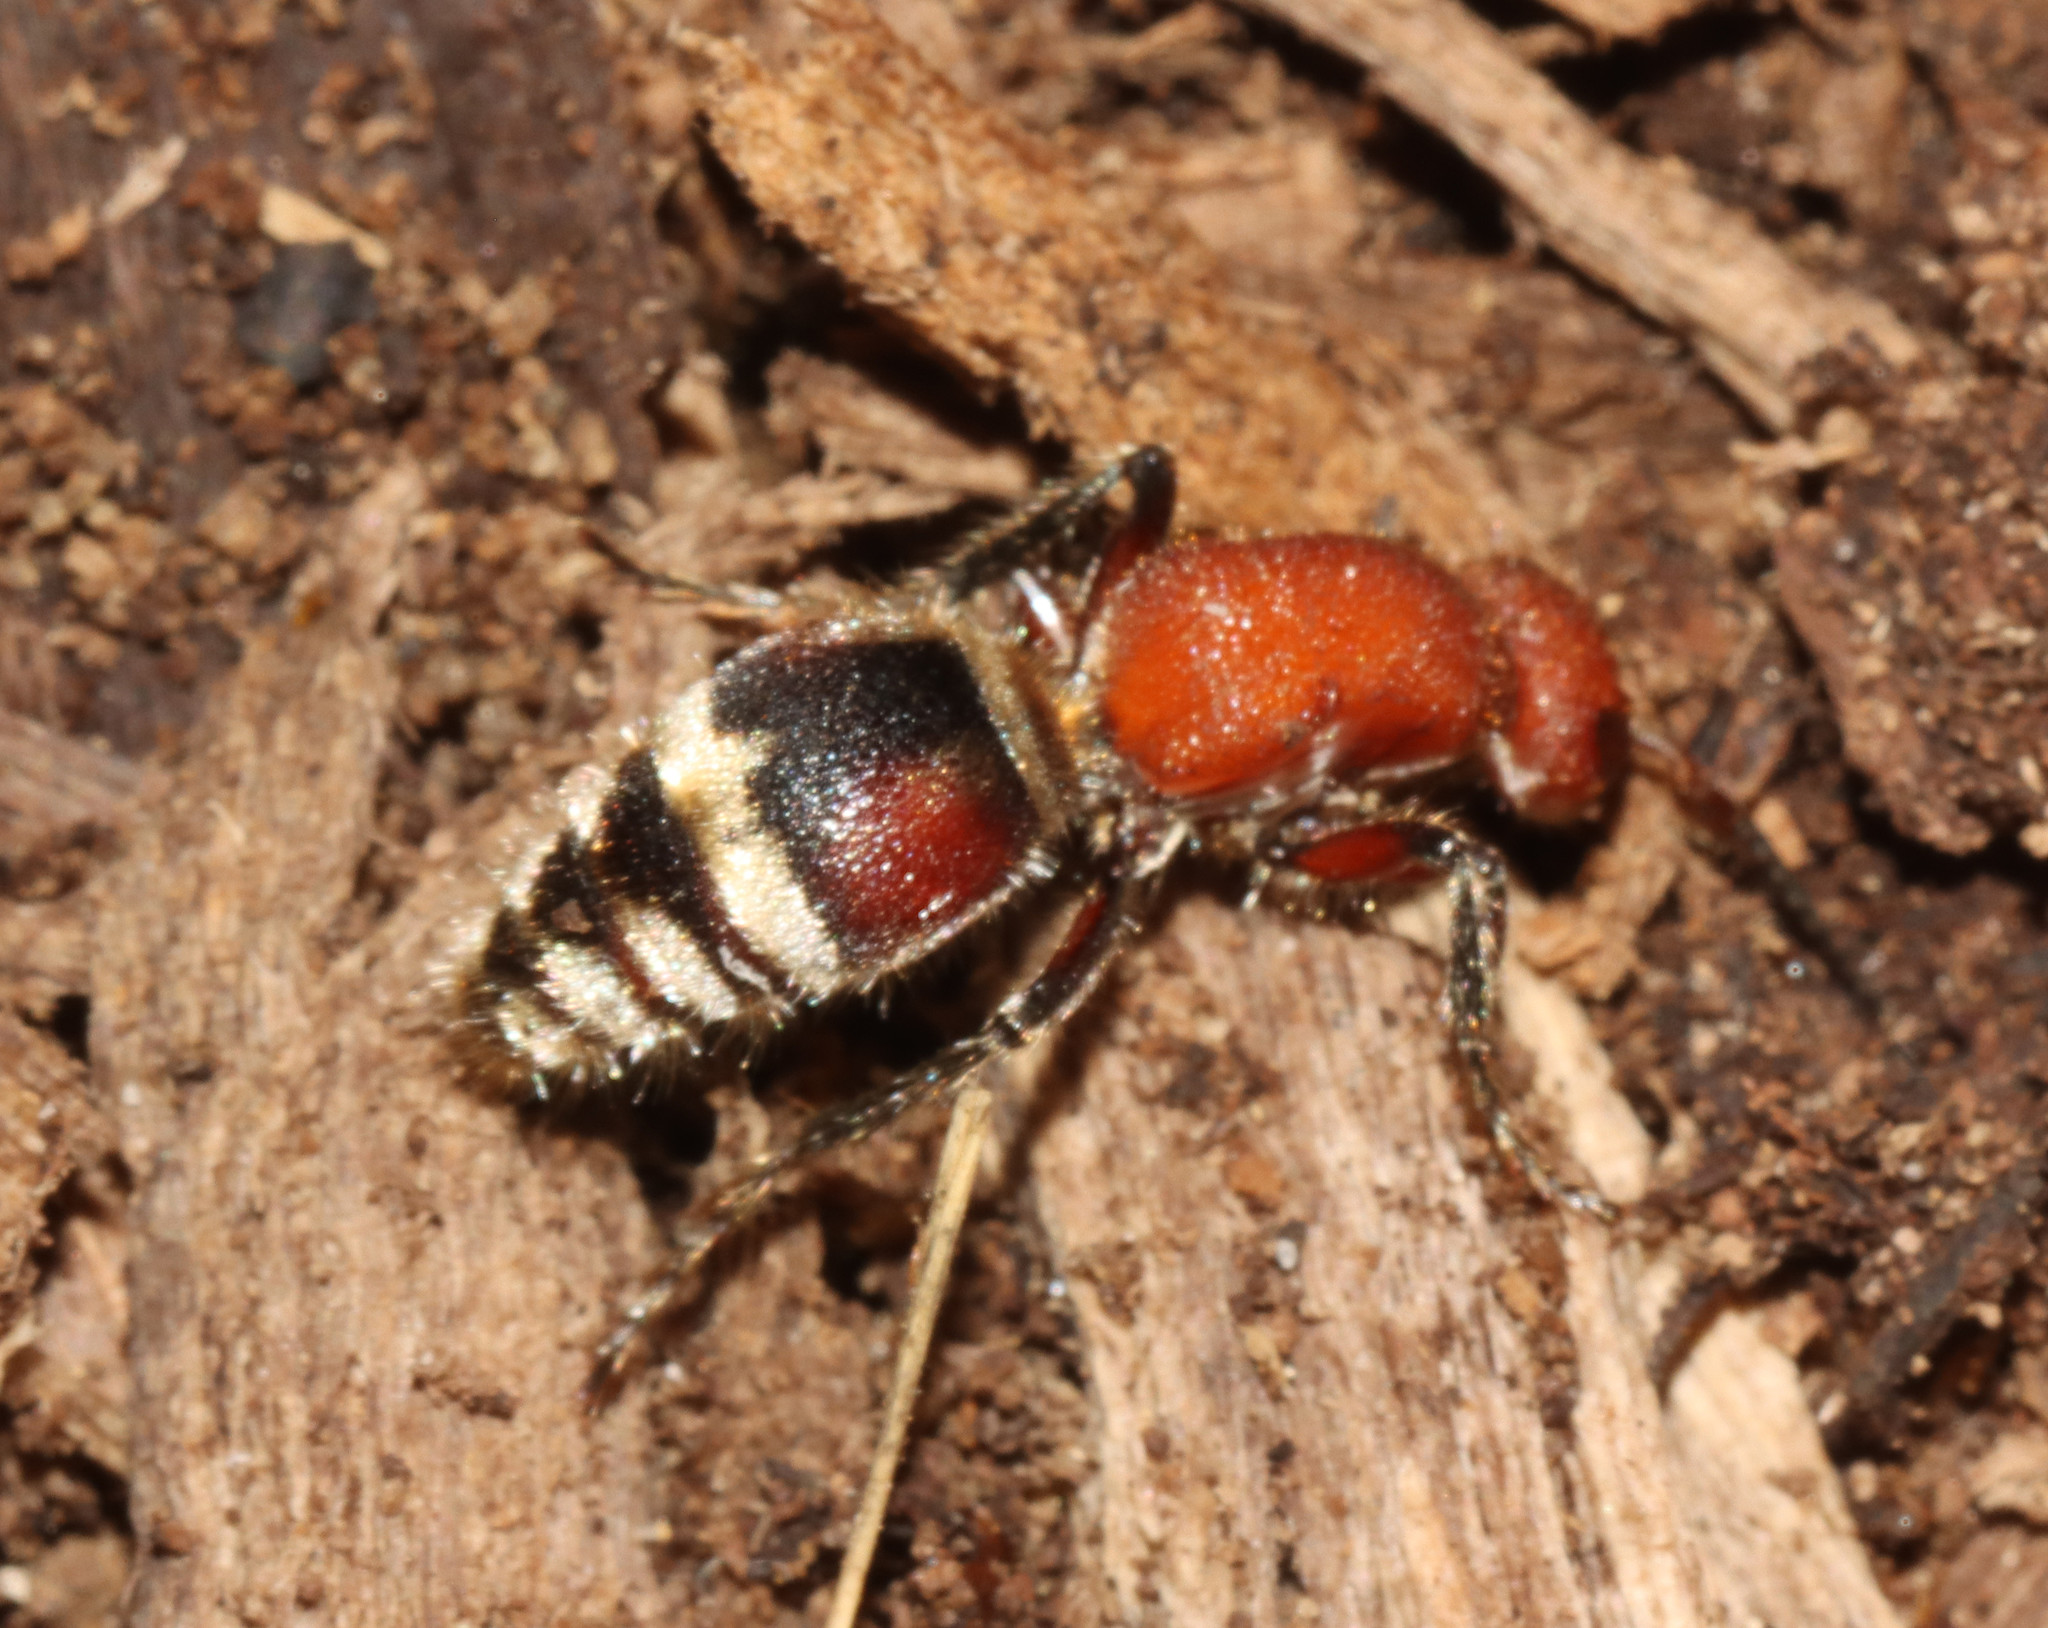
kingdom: Animalia
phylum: Arthropoda
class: Insecta
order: Hymenoptera
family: Mutillidae
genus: Timulla
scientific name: Timulla
